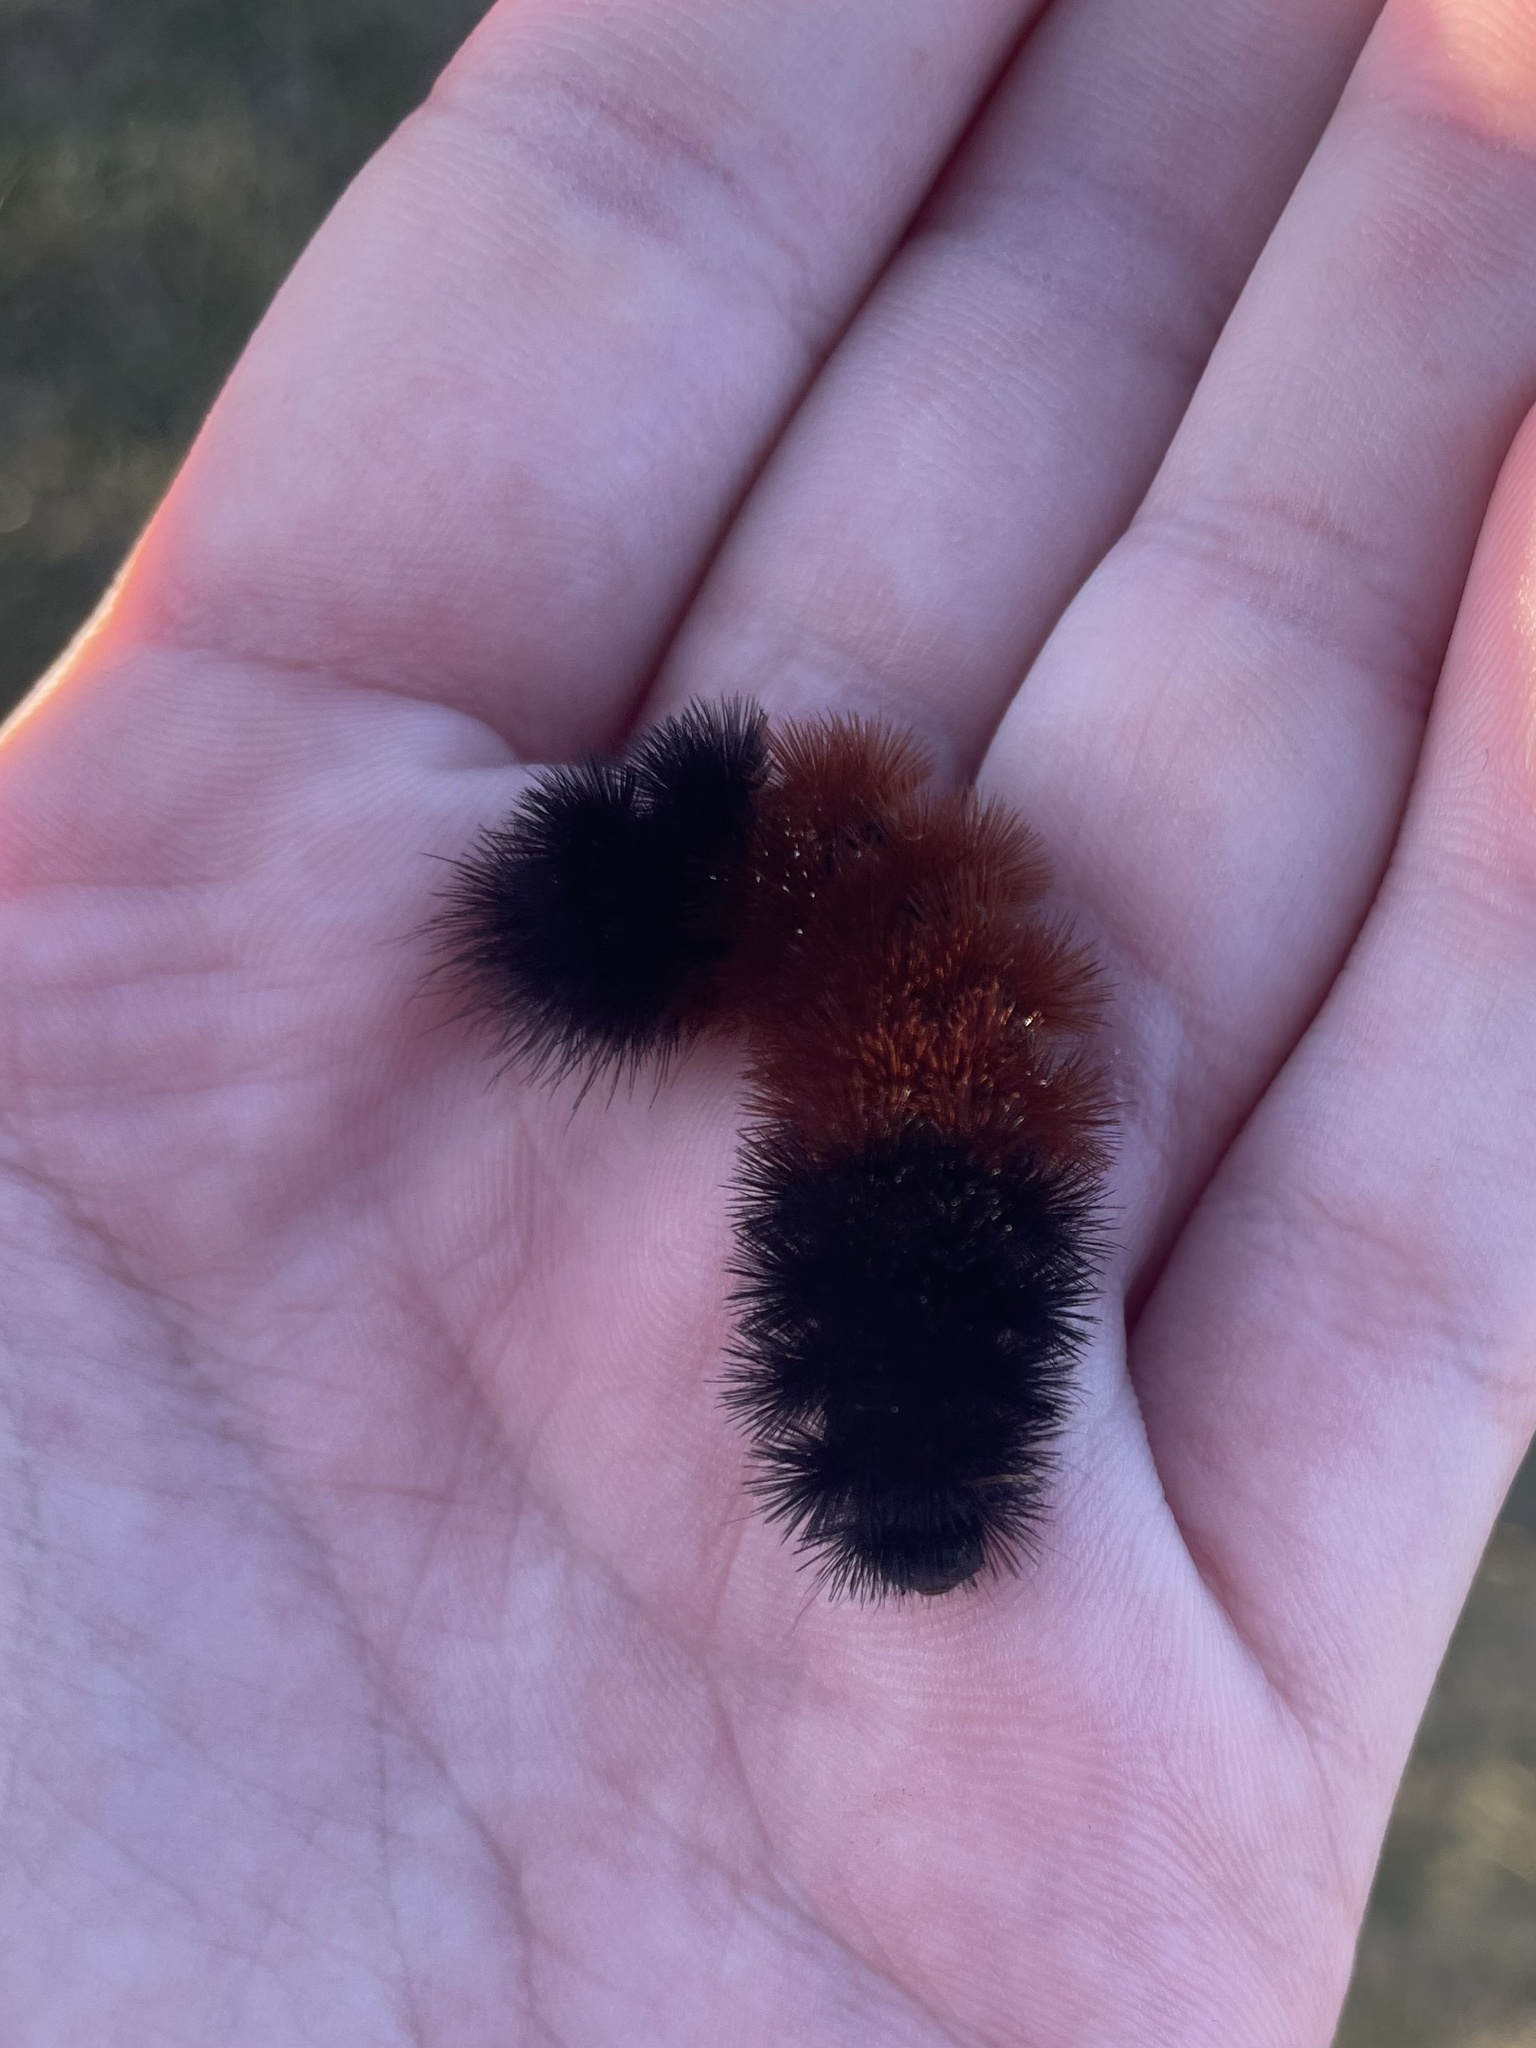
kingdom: Animalia
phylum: Arthropoda
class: Insecta
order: Lepidoptera
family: Erebidae
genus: Pyrrharctia
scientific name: Pyrrharctia isabella
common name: Isabella tiger moth
